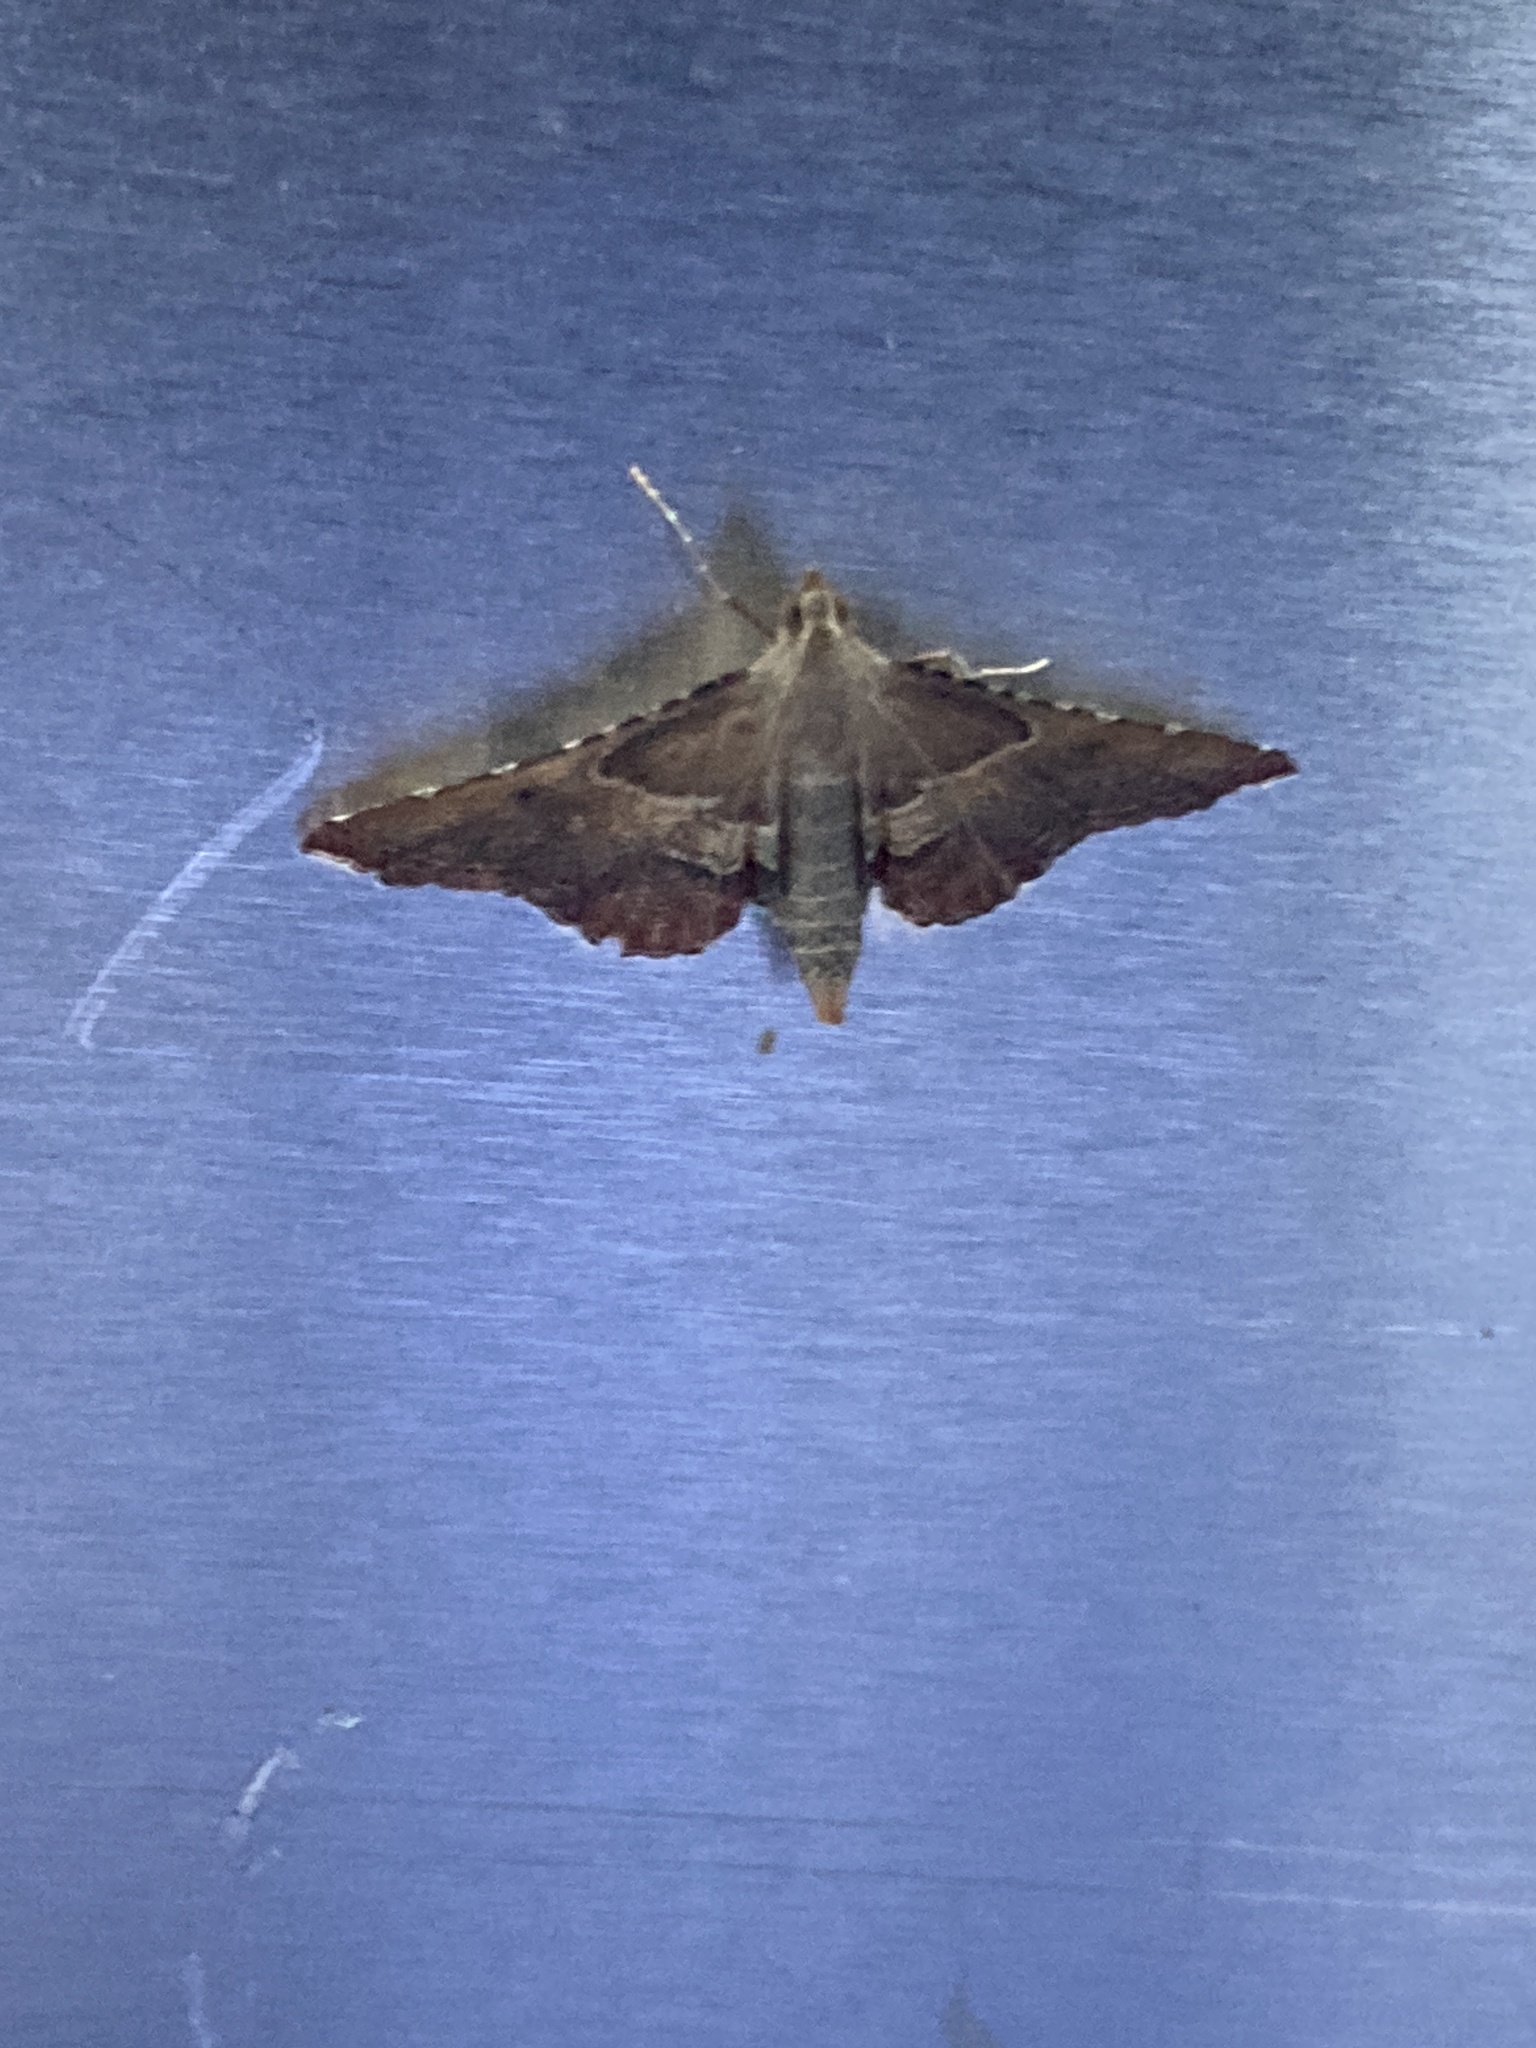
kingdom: Animalia
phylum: Arthropoda
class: Insecta
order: Lepidoptera
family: Pyralidae
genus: Endotricha
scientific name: Endotricha flammealis
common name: Rosy tabby
